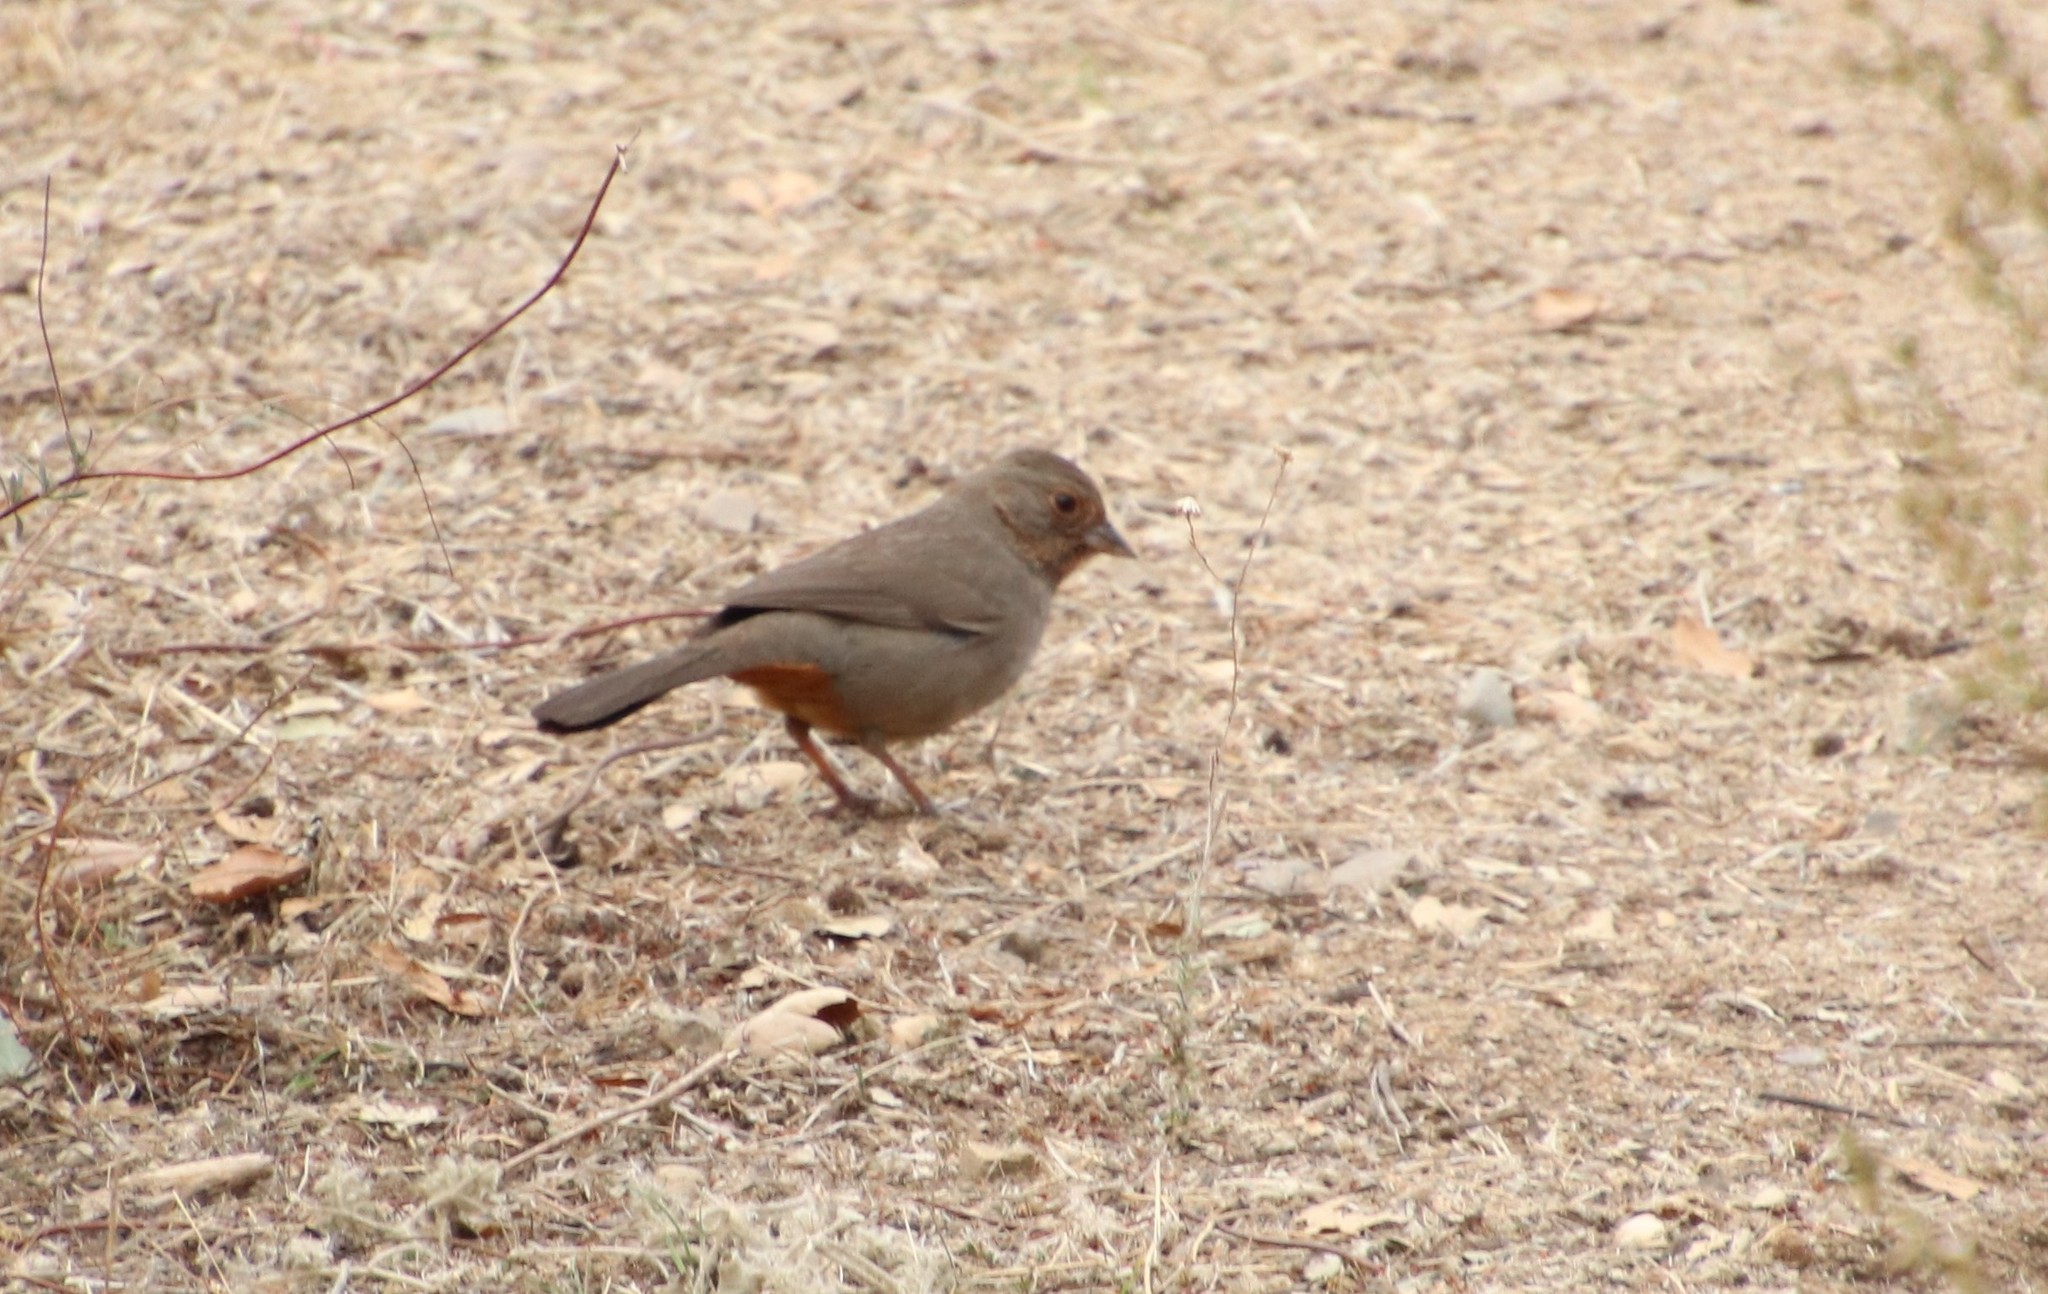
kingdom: Animalia
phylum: Chordata
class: Aves
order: Passeriformes
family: Passerellidae
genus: Melozone
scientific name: Melozone crissalis
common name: California towhee
